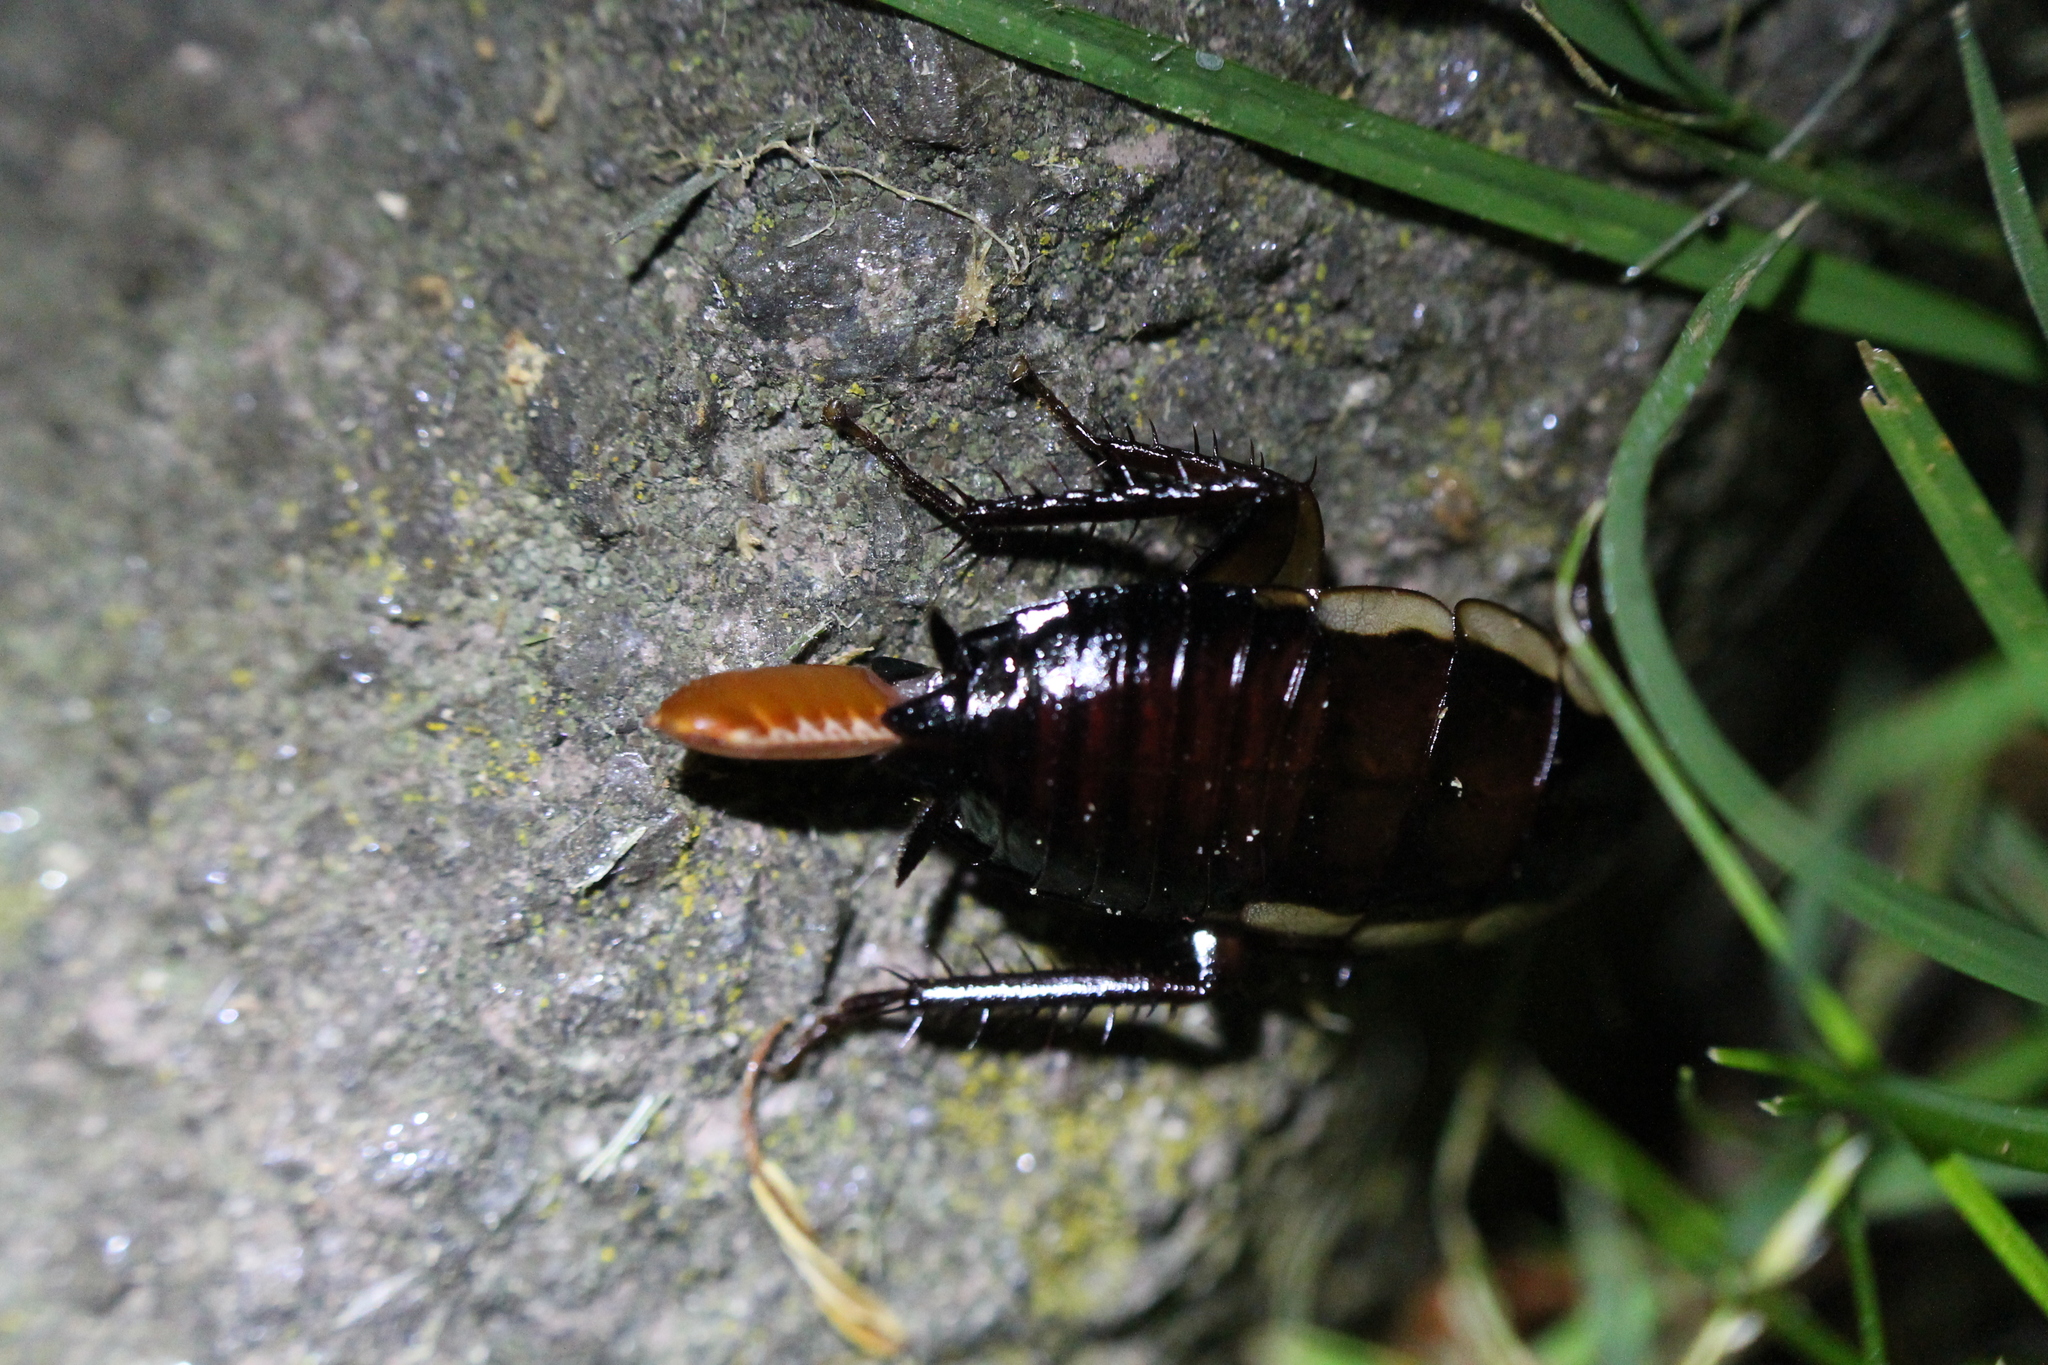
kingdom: Animalia
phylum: Arthropoda
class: Insecta
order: Blattodea
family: Blattidae
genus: Drymaplaneta
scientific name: Drymaplaneta semivitta
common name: Gisborne cockroach
